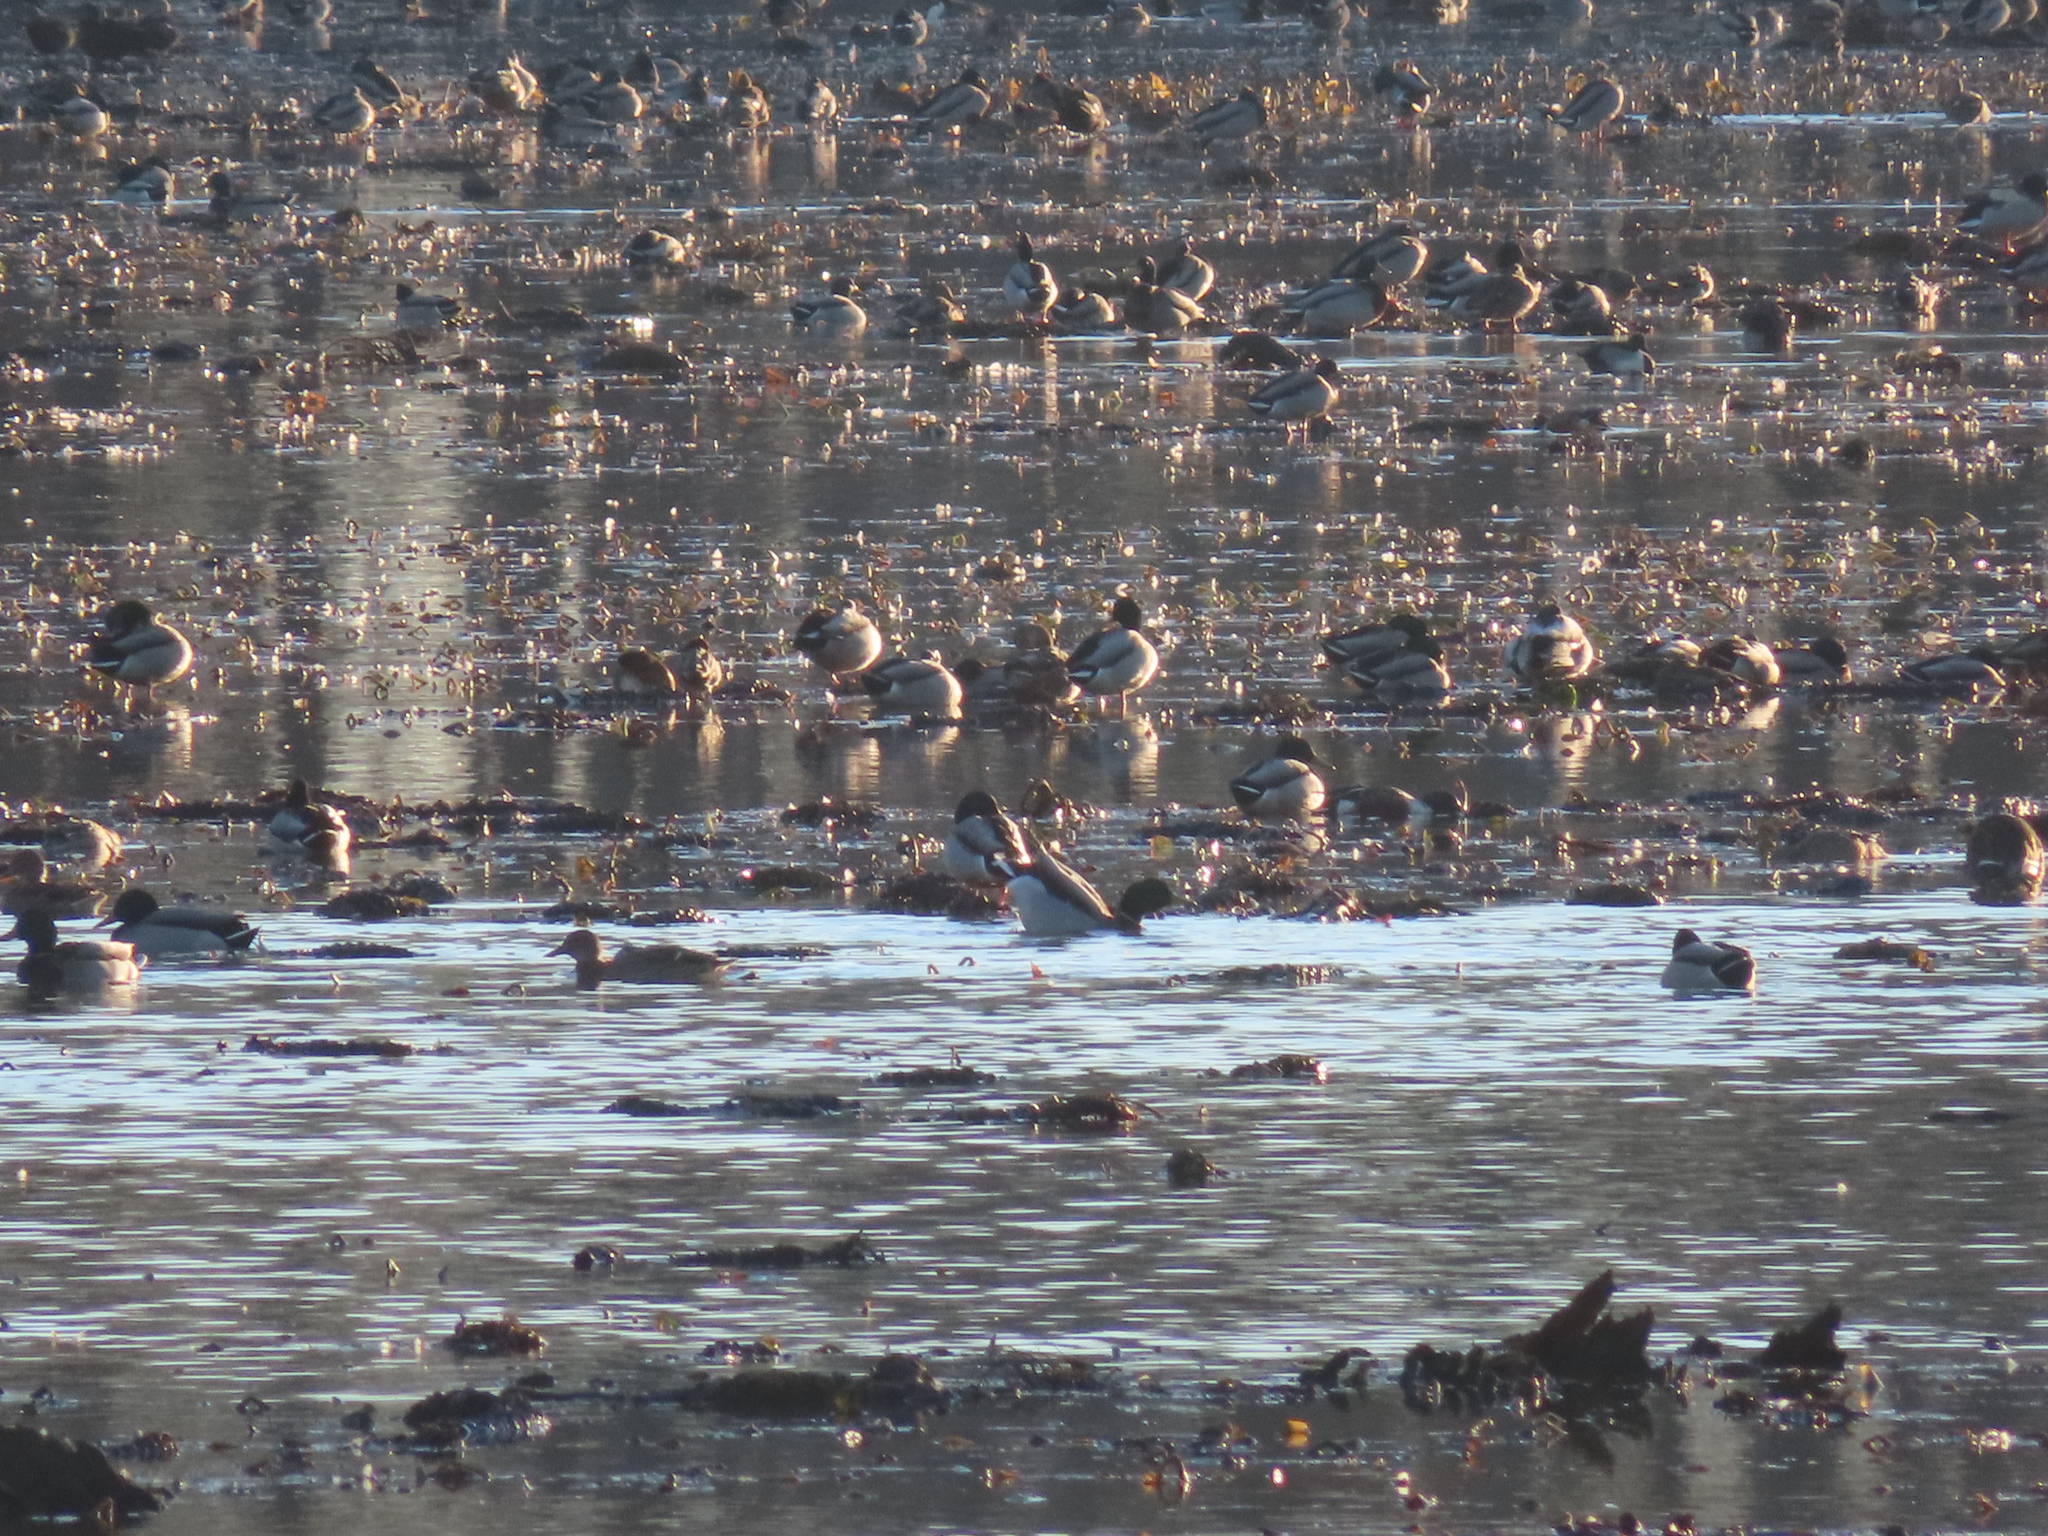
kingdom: Animalia
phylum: Chordata
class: Aves
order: Anseriformes
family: Anatidae
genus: Aythya
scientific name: Aythya collaris
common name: Ring-necked duck
